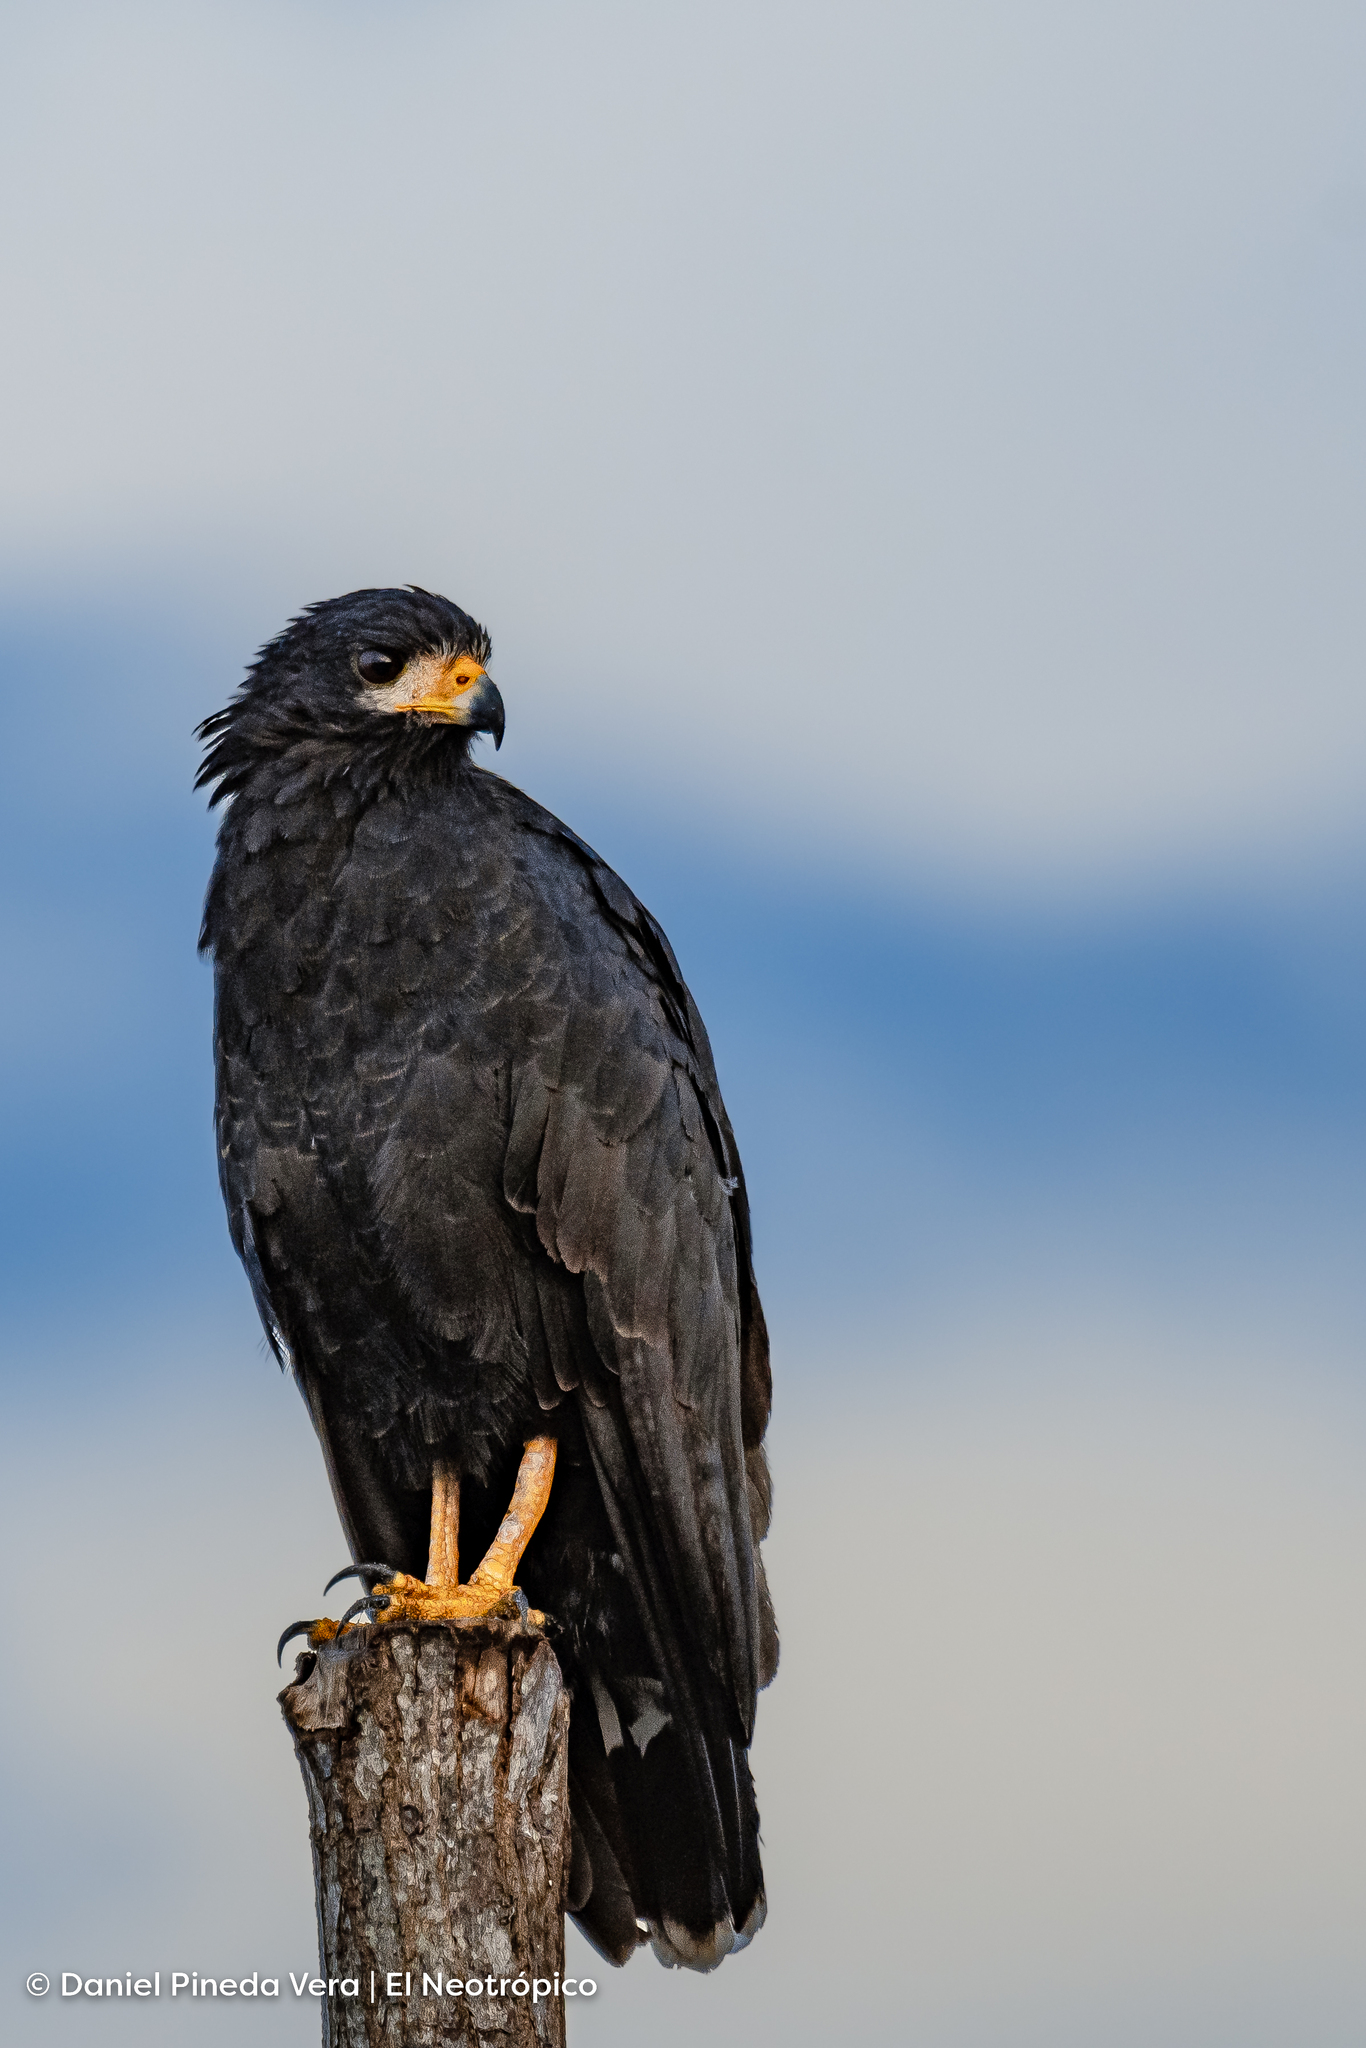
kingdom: Animalia
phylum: Chordata
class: Aves
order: Accipitriformes
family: Accipitridae
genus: Buteogallus
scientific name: Buteogallus anthracinus
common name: Common black hawk
